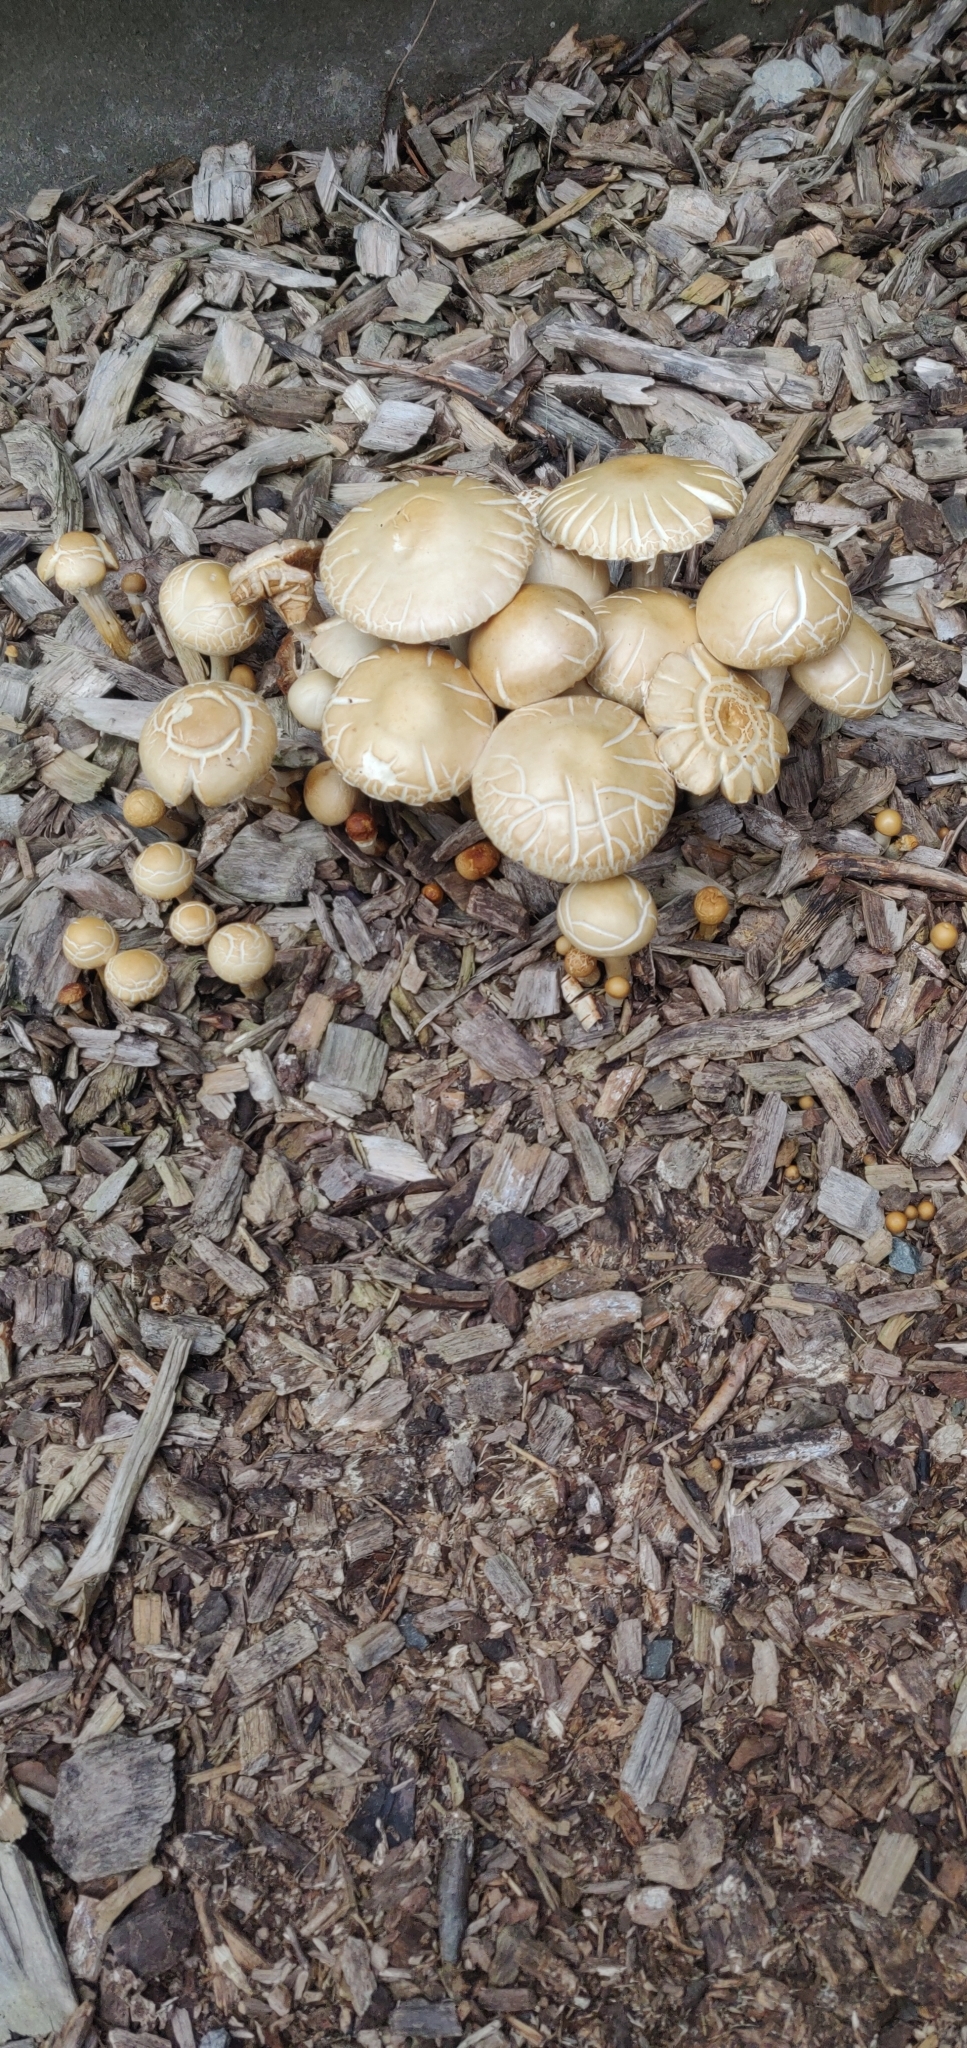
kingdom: Fungi
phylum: Basidiomycota
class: Agaricomycetes
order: Agaricales
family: Strophariaceae
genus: Agrocybe
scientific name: Agrocybe praecox
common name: Spring fieldcap
